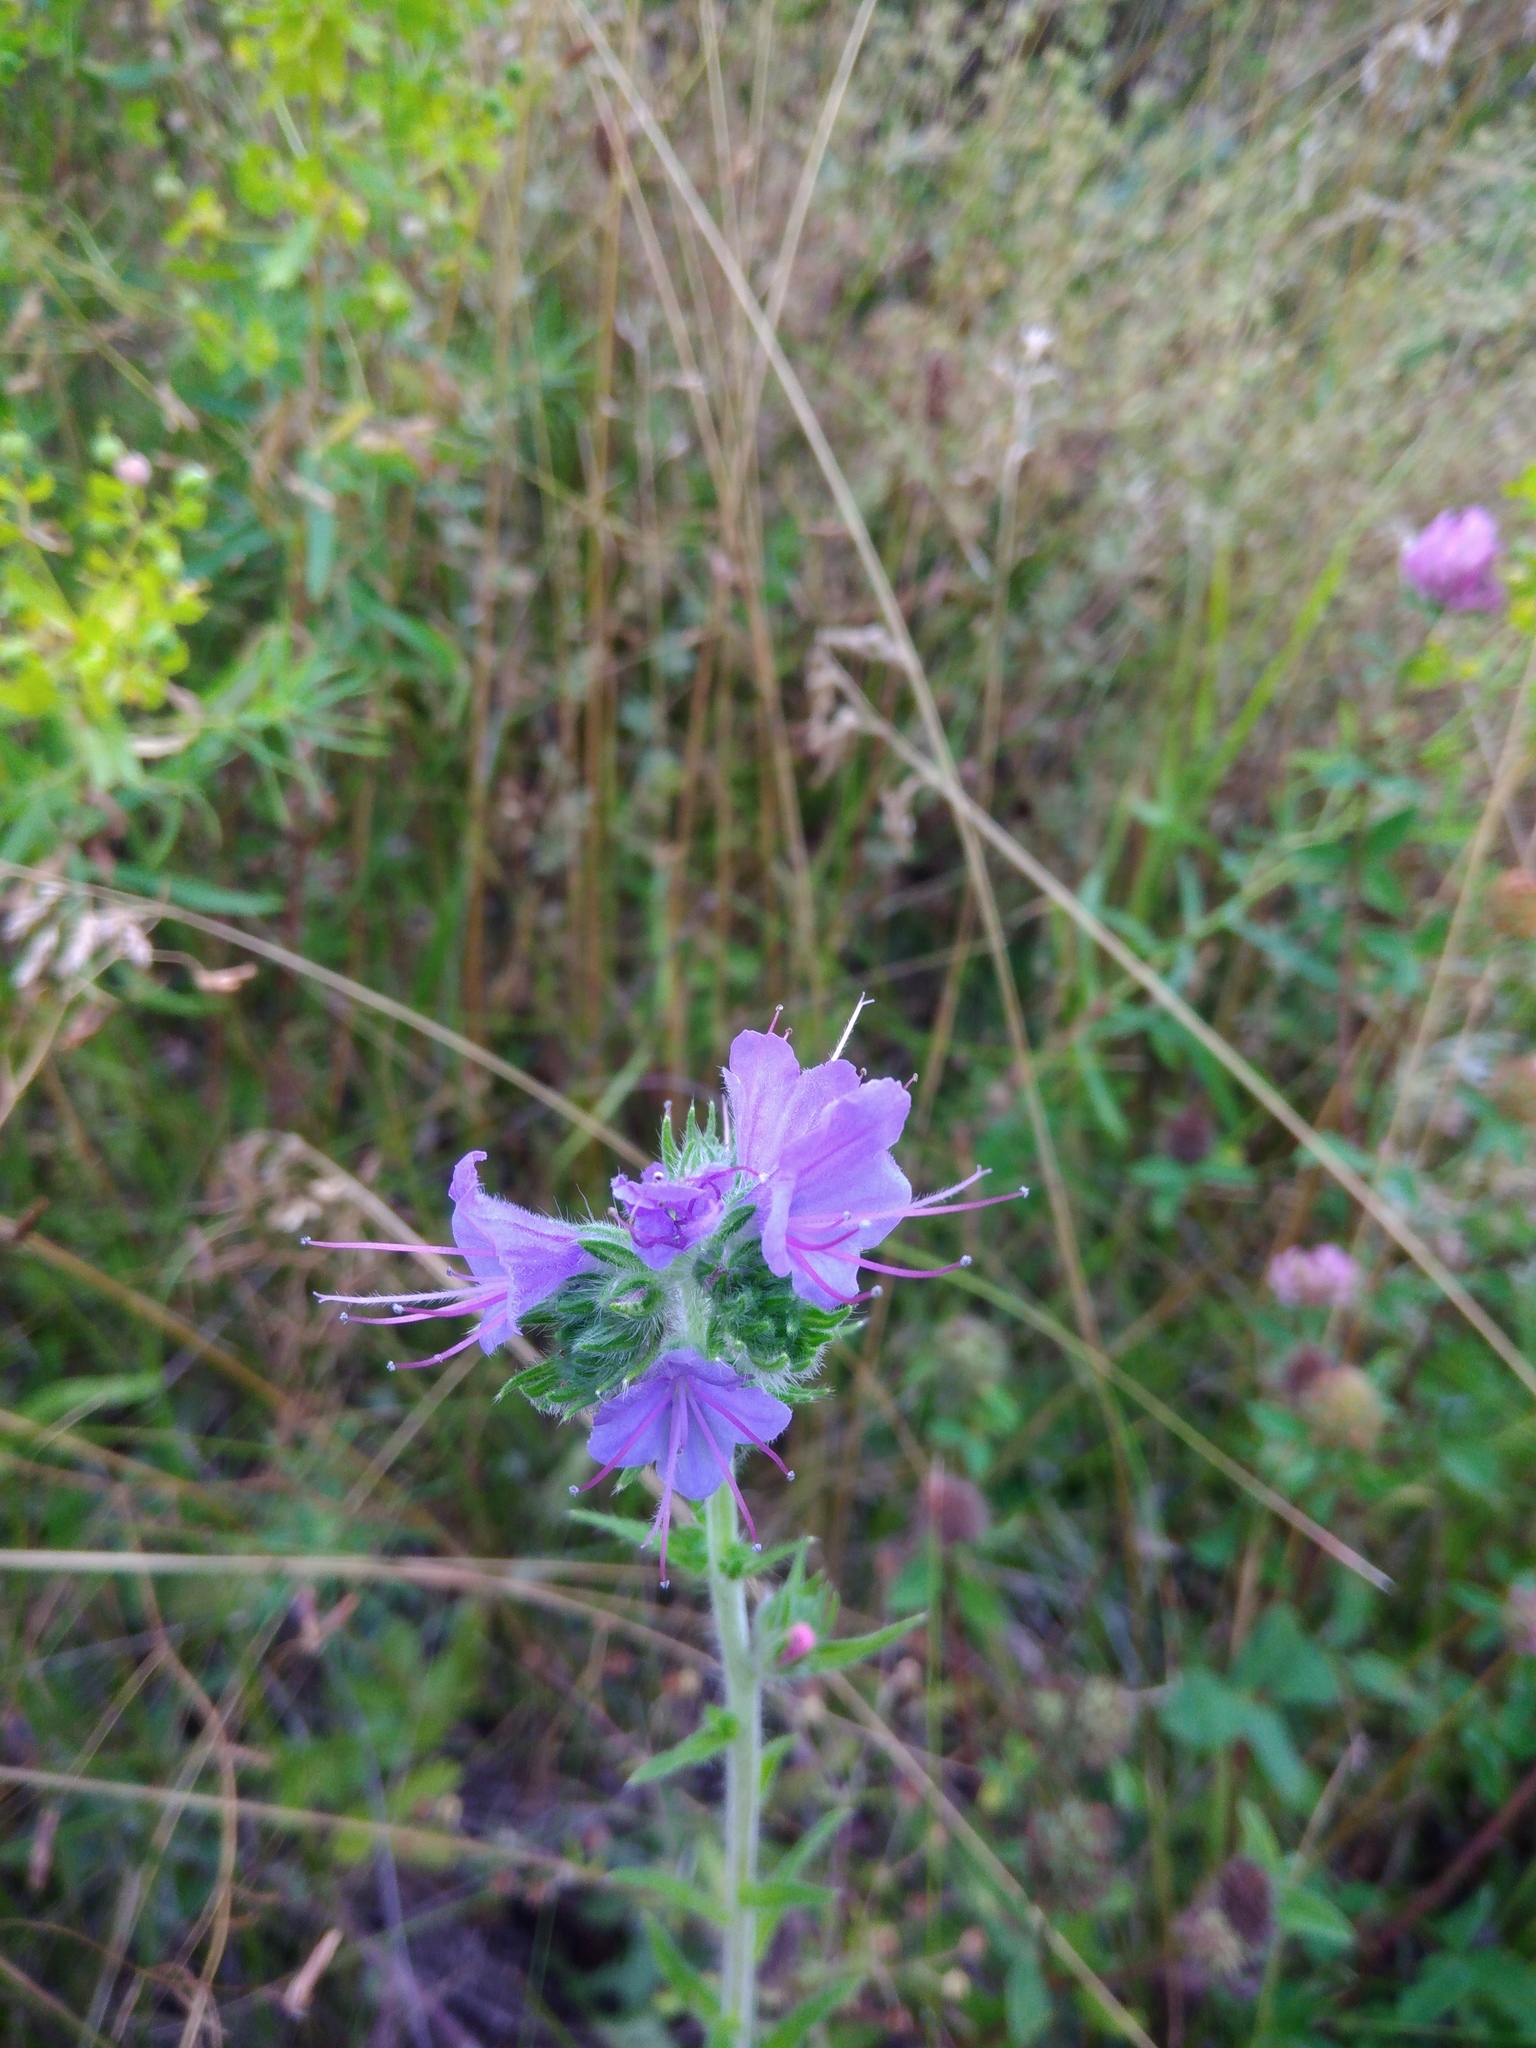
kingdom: Plantae
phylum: Tracheophyta
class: Magnoliopsida
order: Boraginales
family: Boraginaceae
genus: Echium
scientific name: Echium vulgare
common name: Common viper's bugloss
